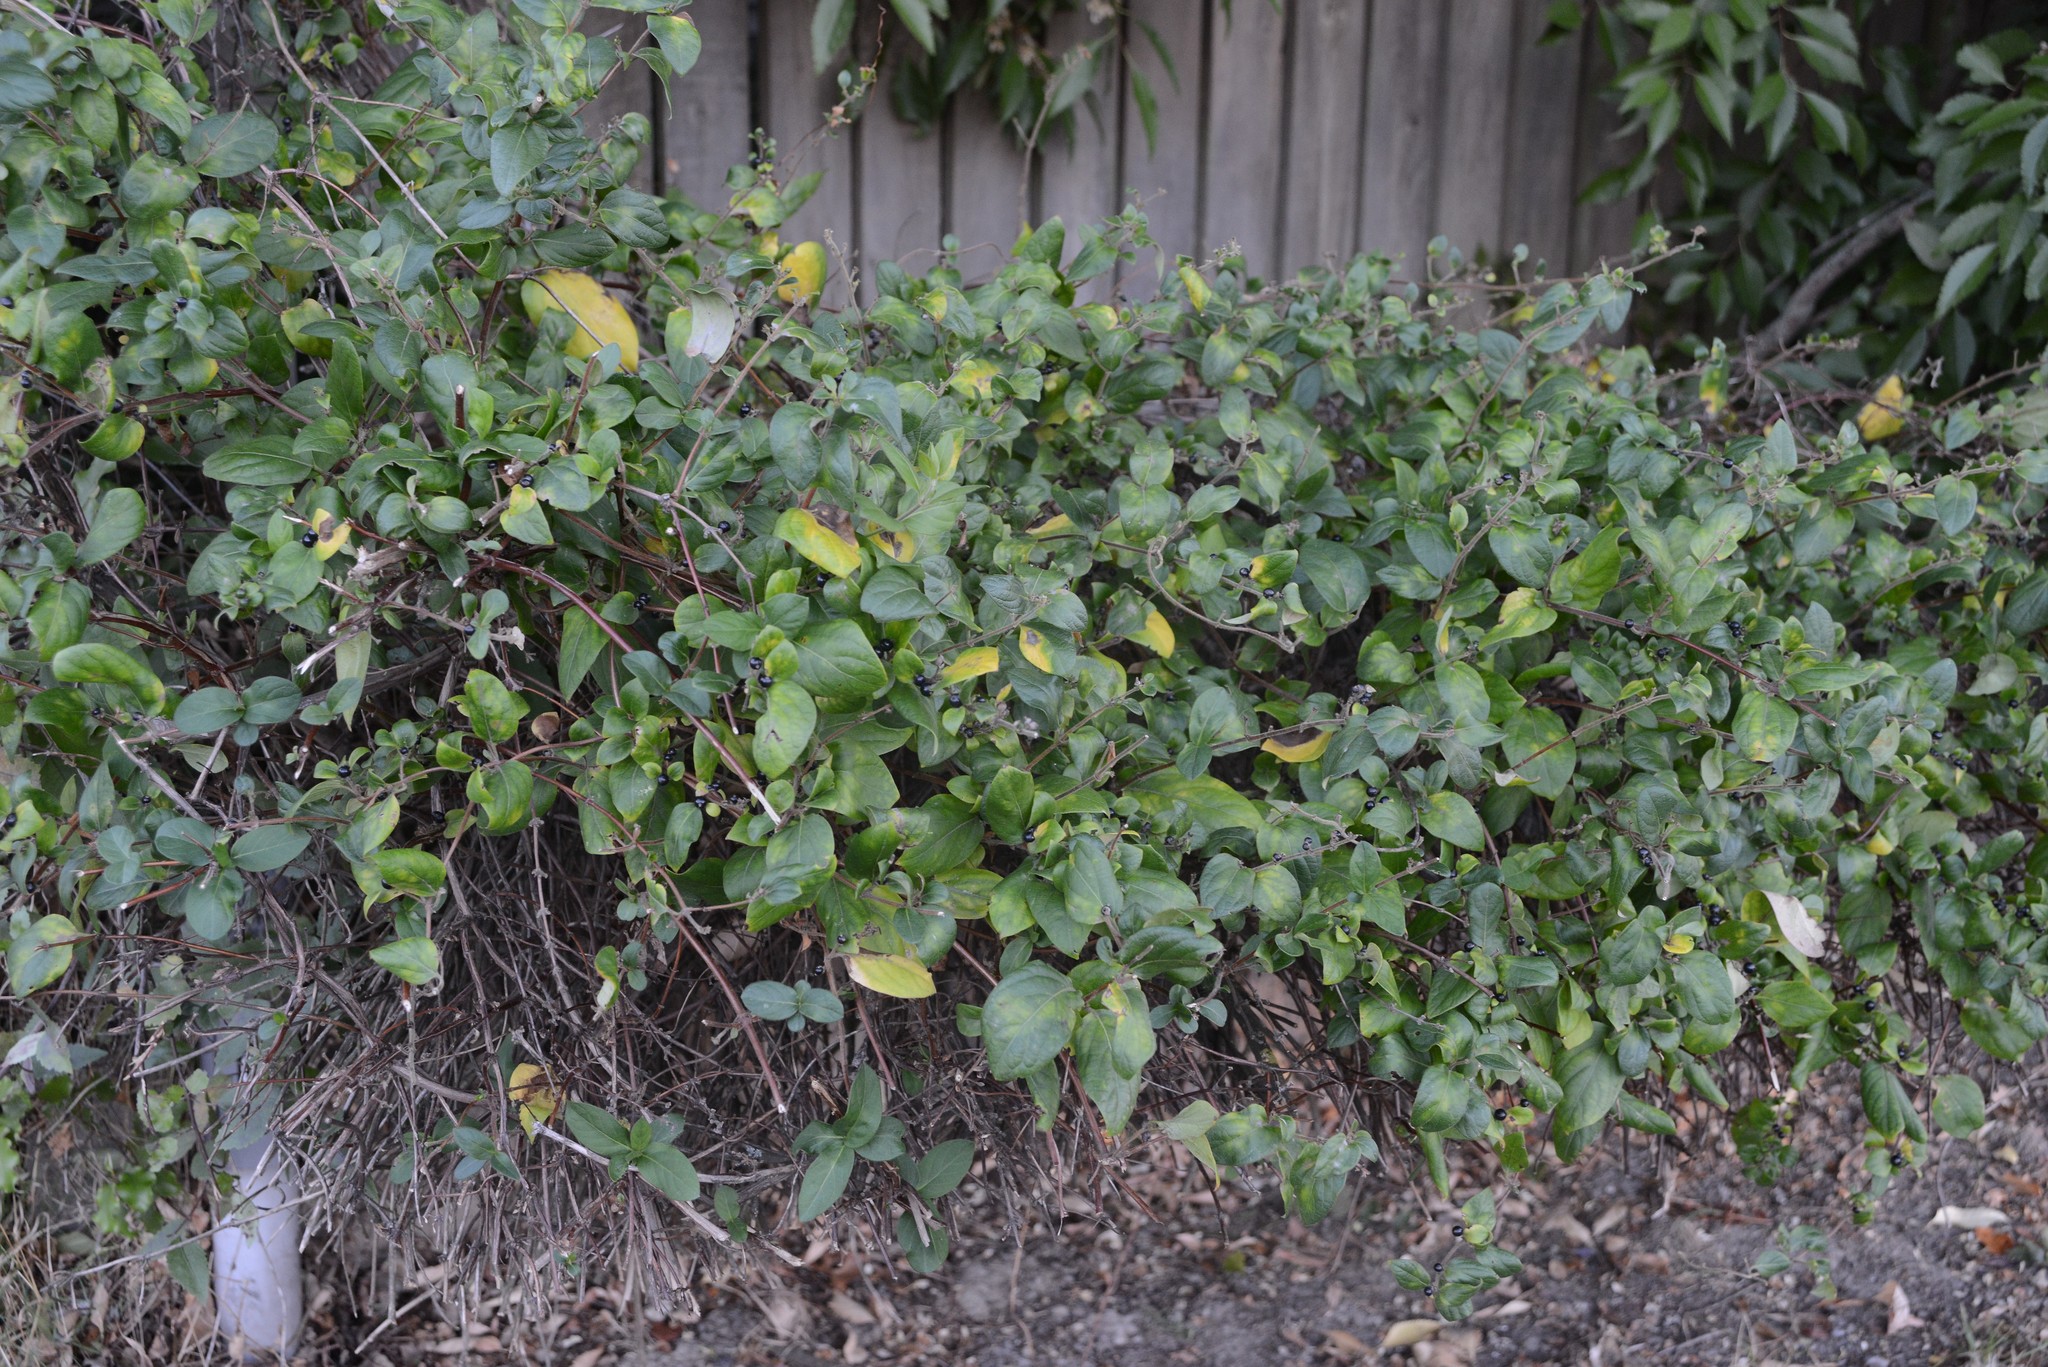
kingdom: Plantae
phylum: Tracheophyta
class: Magnoliopsida
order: Dipsacales
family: Caprifoliaceae
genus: Lonicera
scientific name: Lonicera japonica
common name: Japanese honeysuckle
